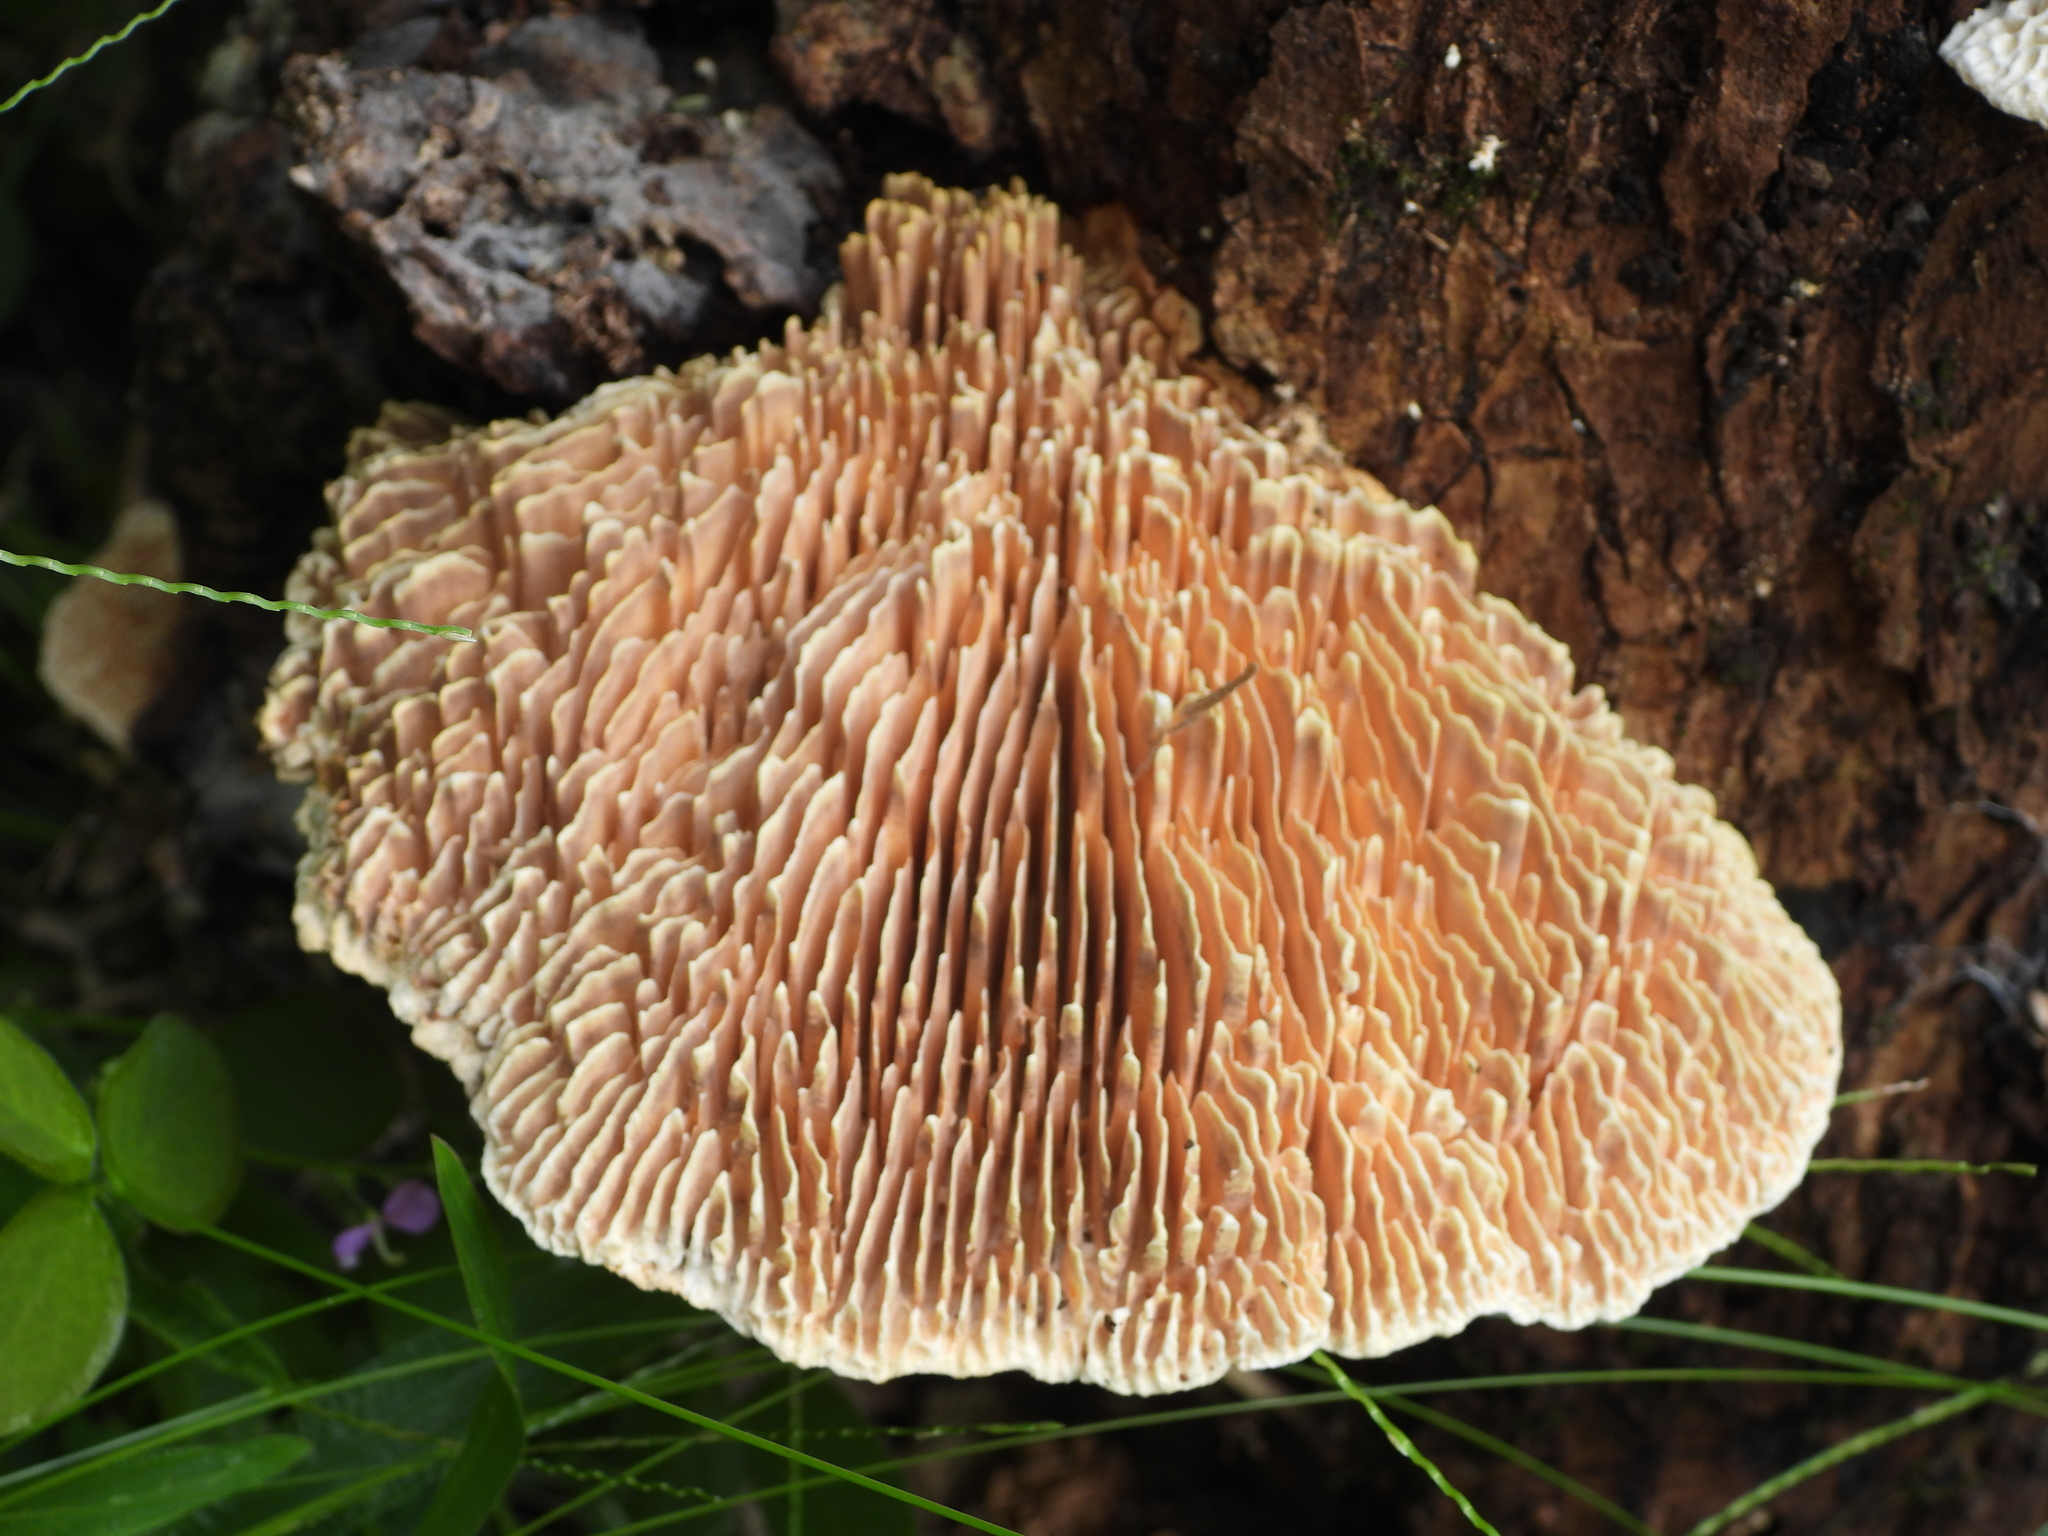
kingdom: Fungi
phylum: Basidiomycota
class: Agaricomycetes
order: Polyporales
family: Polyporaceae
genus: Trametes
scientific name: Trametes tenuis
